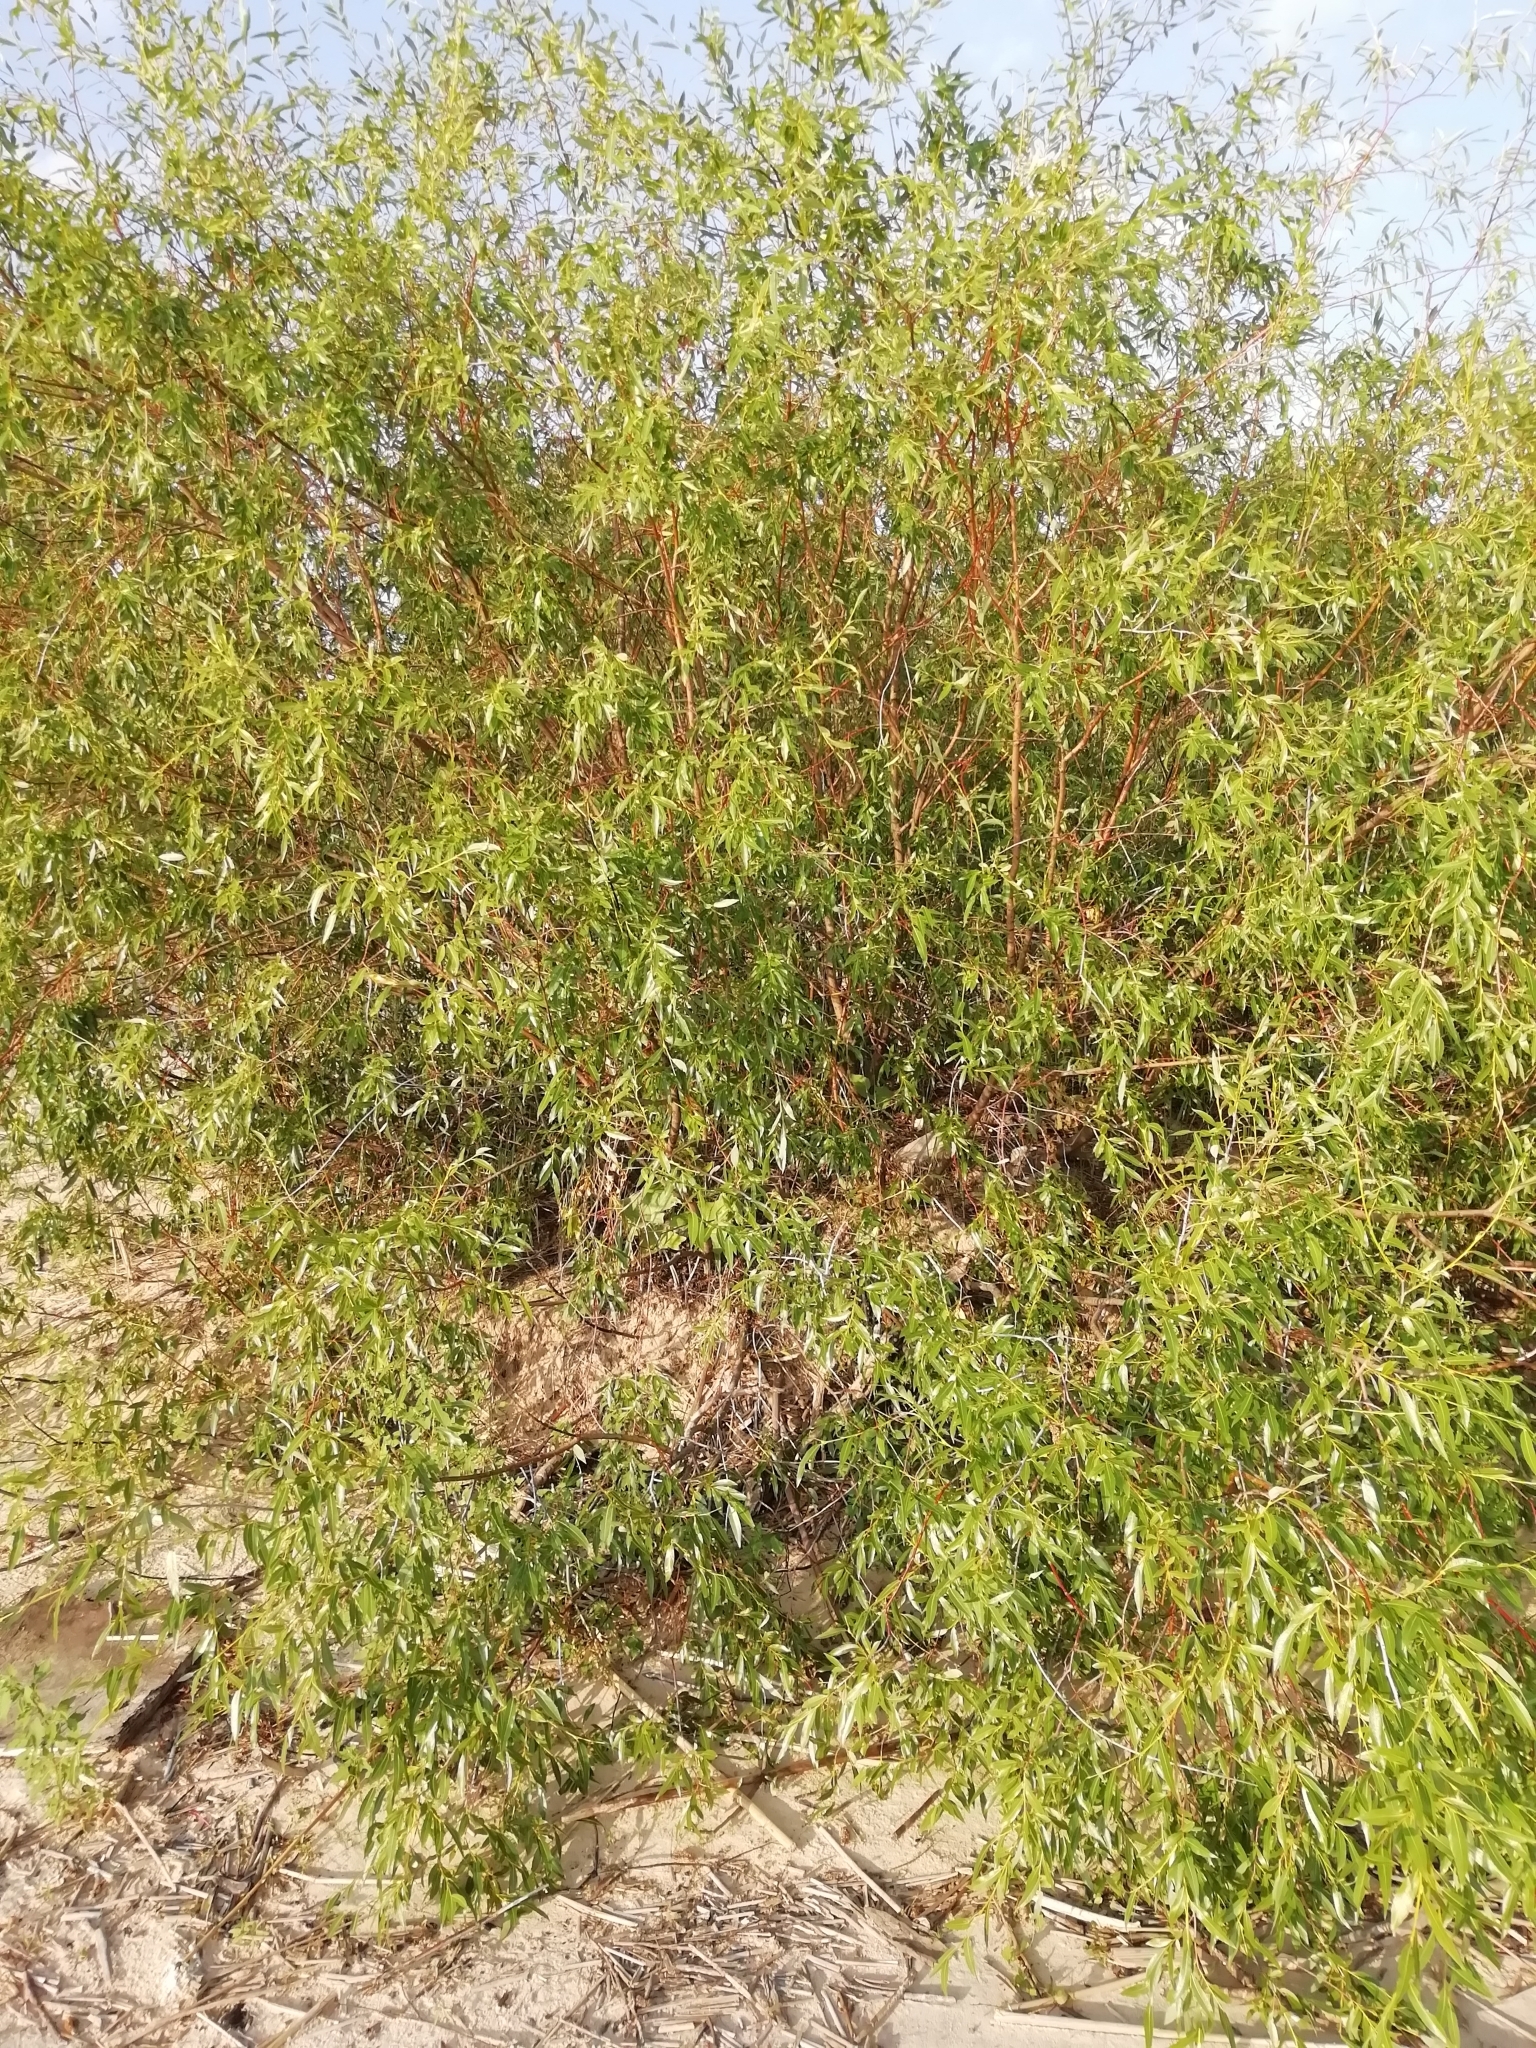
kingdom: Plantae
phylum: Tracheophyta
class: Magnoliopsida
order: Malpighiales
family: Salicaceae
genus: Salix
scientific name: Salix acutifolia
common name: Siberian violet-willow
